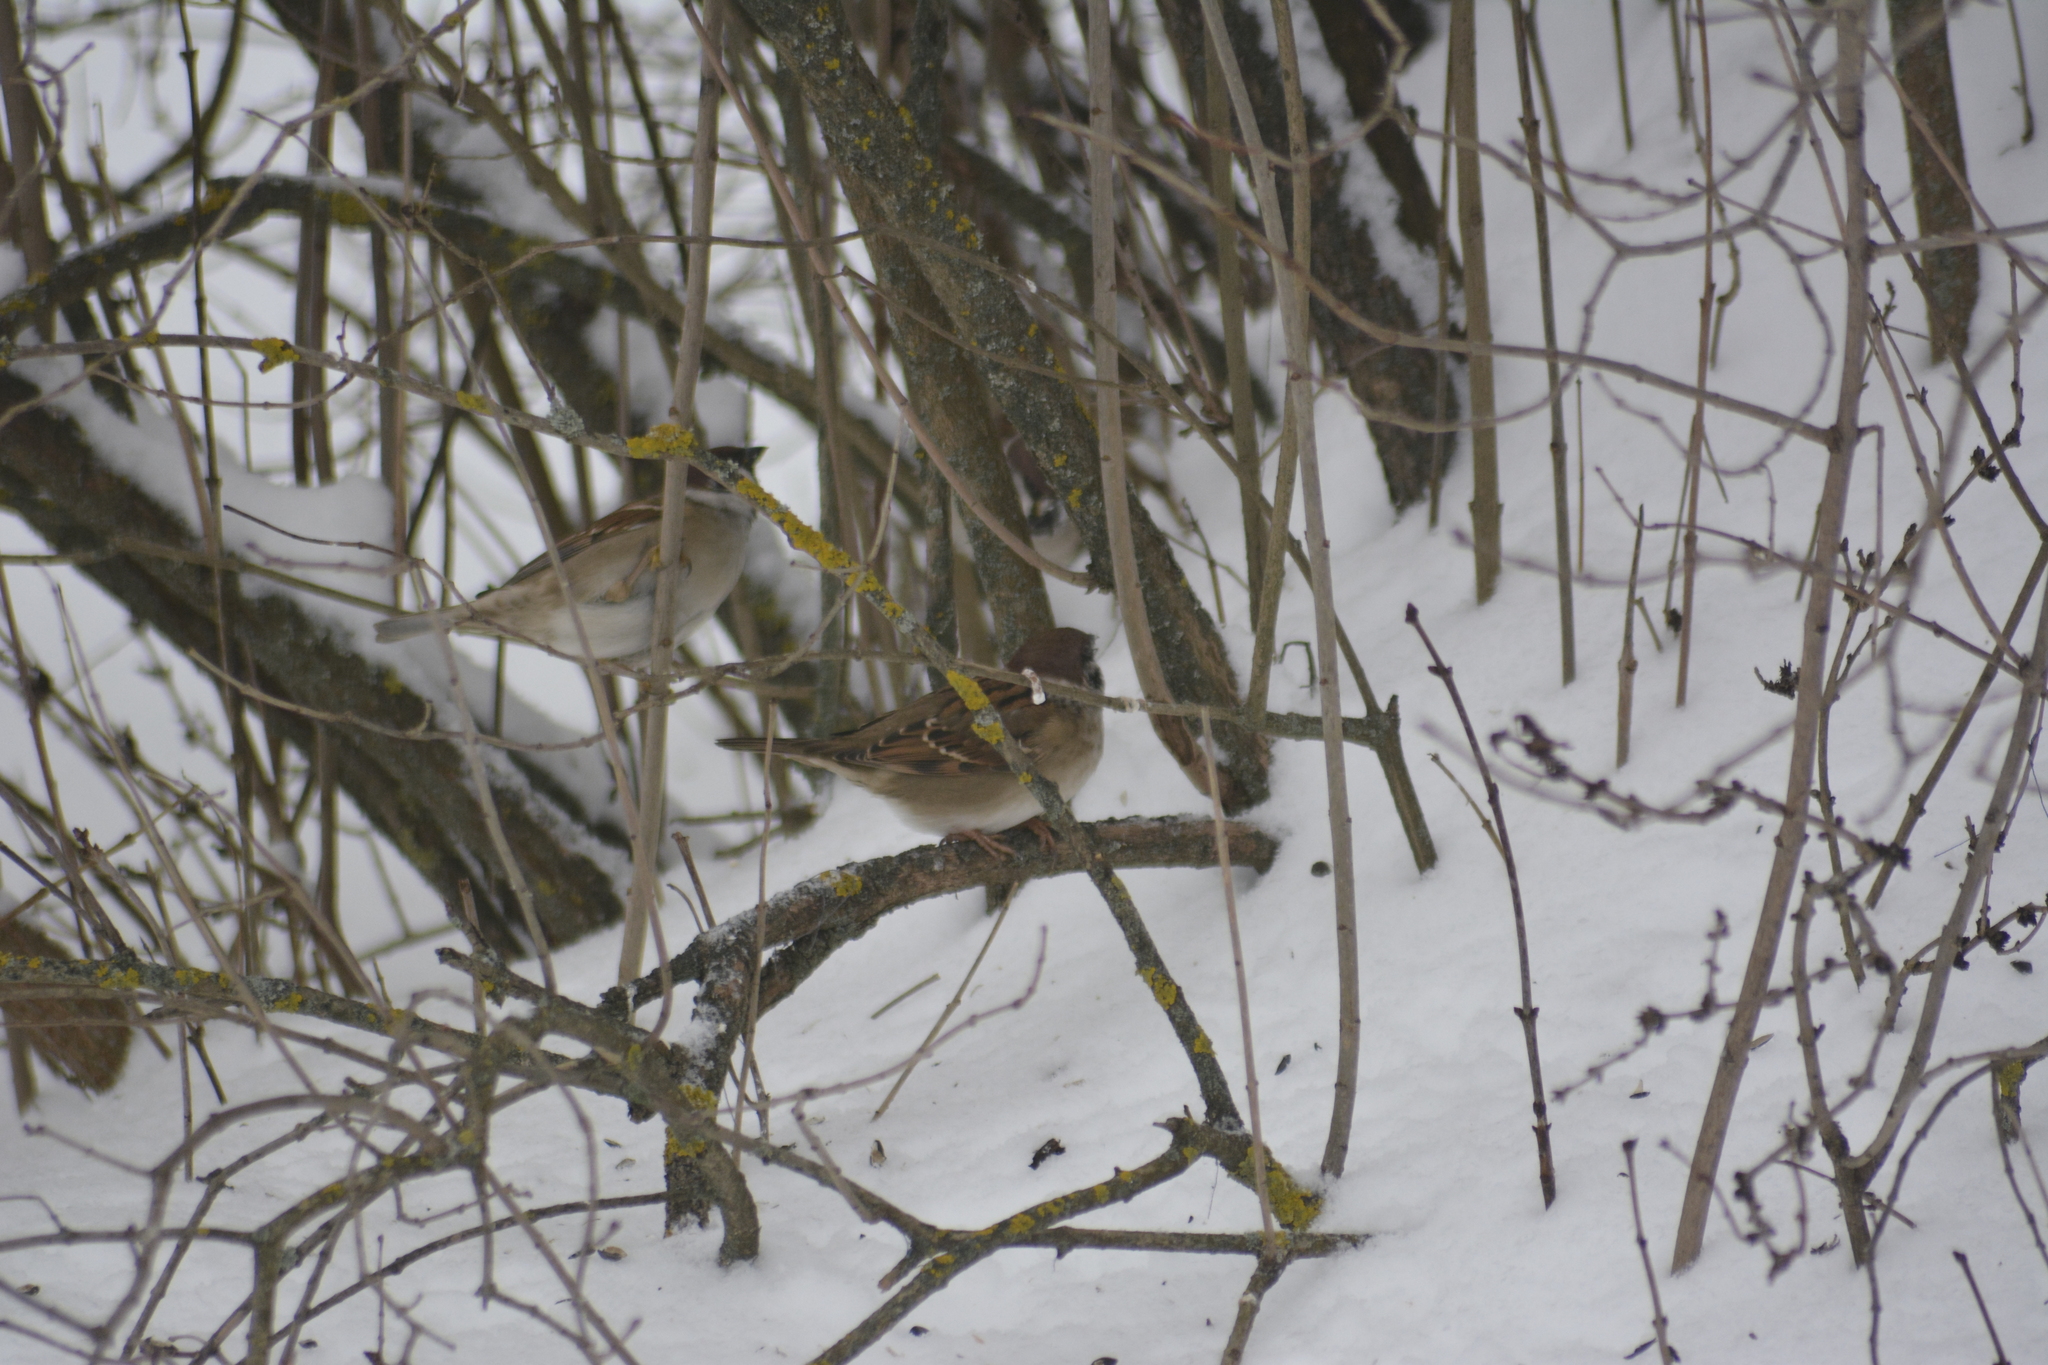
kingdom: Animalia
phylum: Chordata
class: Aves
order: Passeriformes
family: Passeridae
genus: Passer
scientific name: Passer montanus
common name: Eurasian tree sparrow
